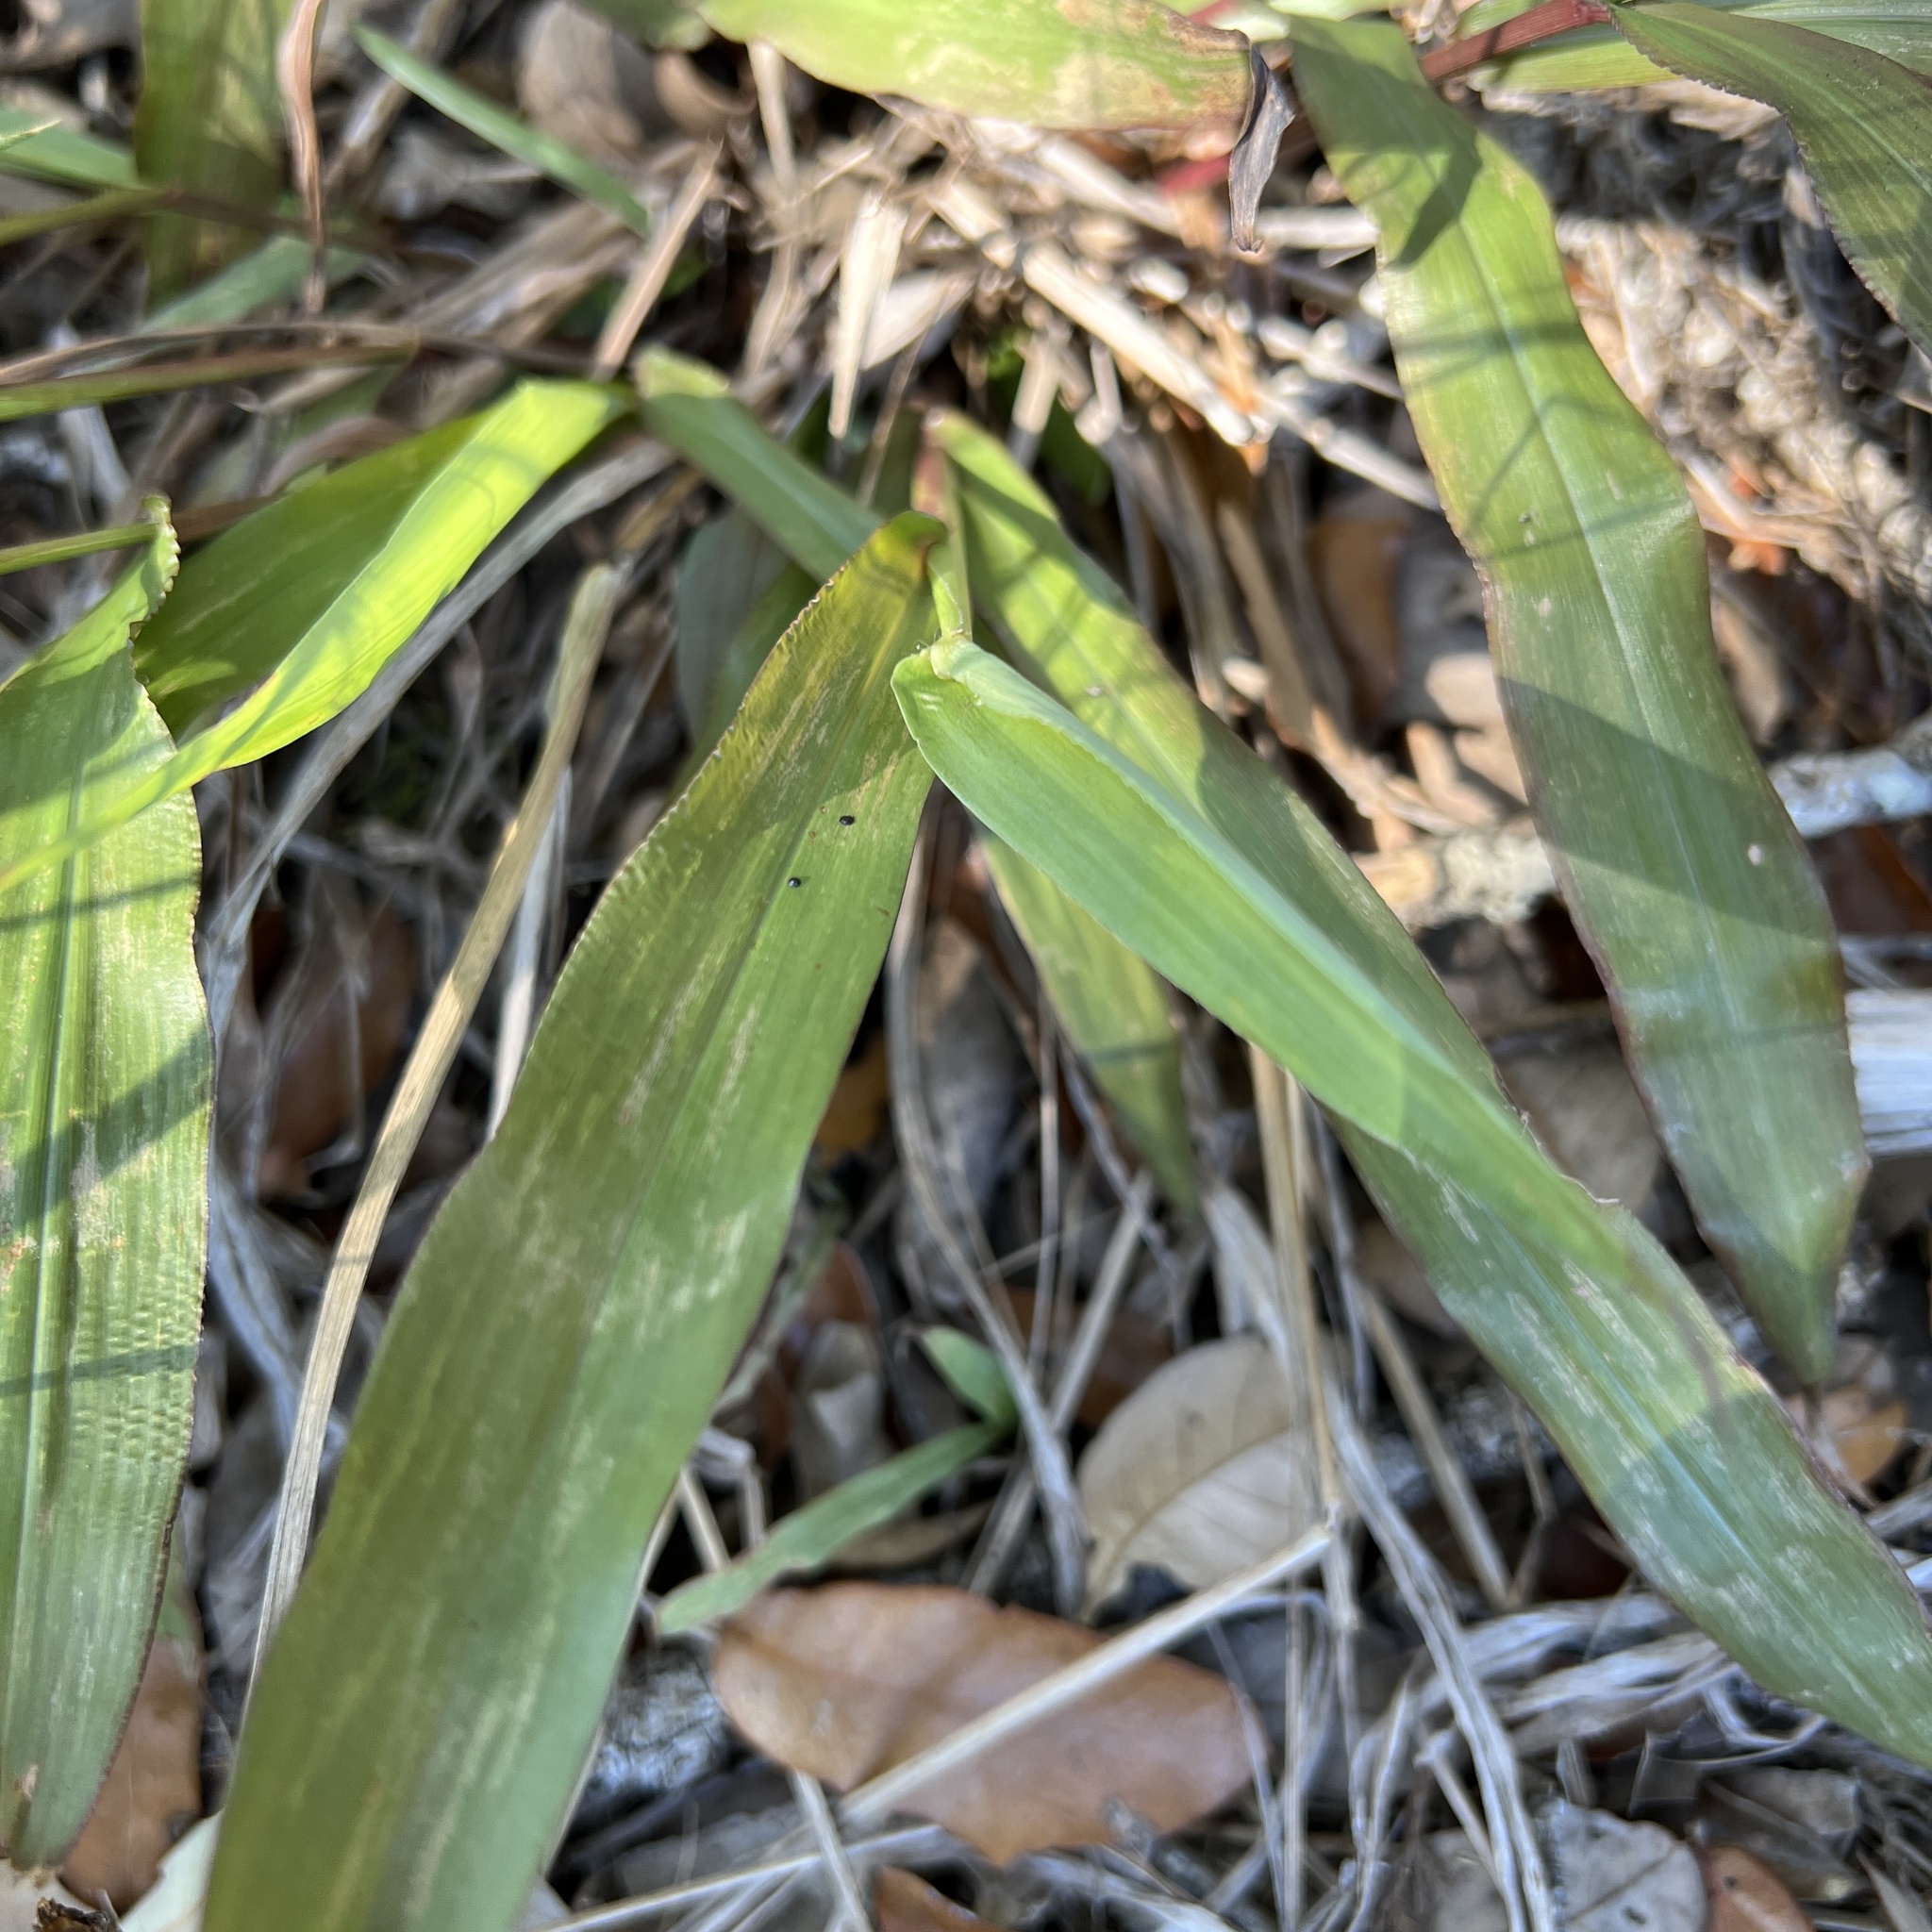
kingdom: Plantae
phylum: Tracheophyta
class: Liliopsida
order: Poales
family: Poaceae
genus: Paspalum
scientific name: Paspalum langei
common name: Rusty-seed paspalum
